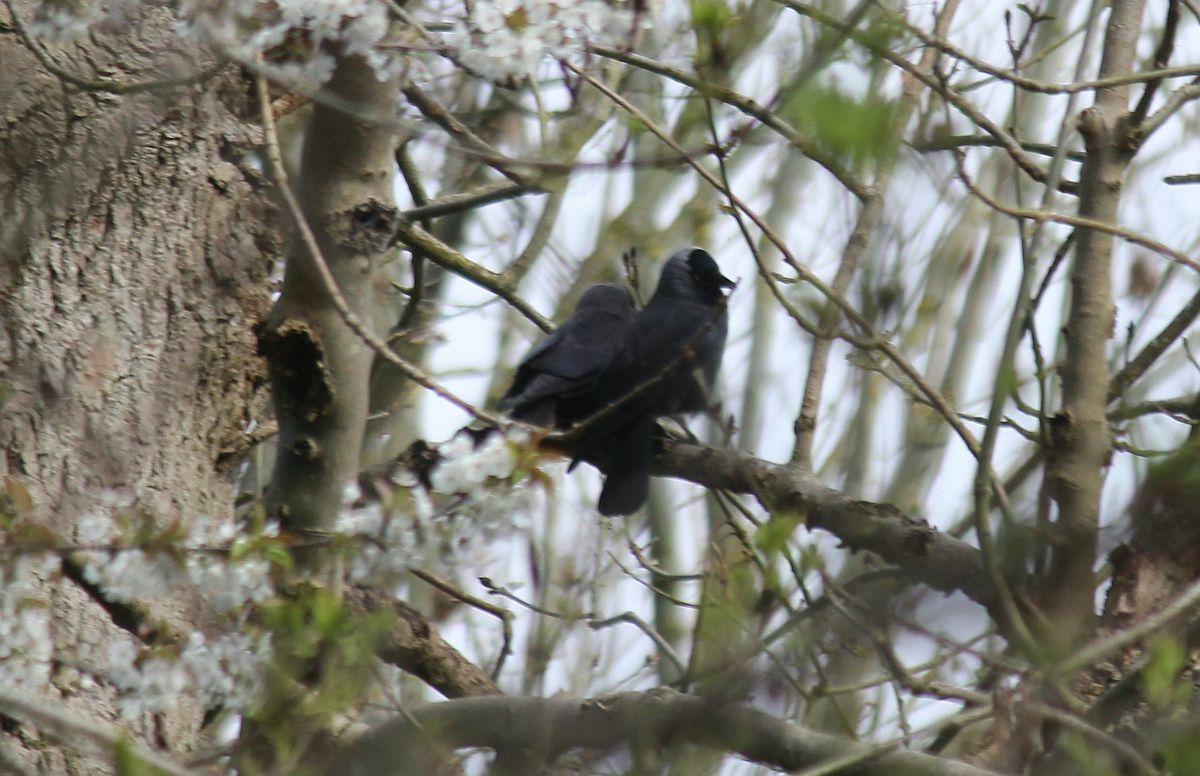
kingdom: Animalia
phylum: Chordata
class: Aves
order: Passeriformes
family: Corvidae
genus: Coloeus
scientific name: Coloeus monedula
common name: Western jackdaw
